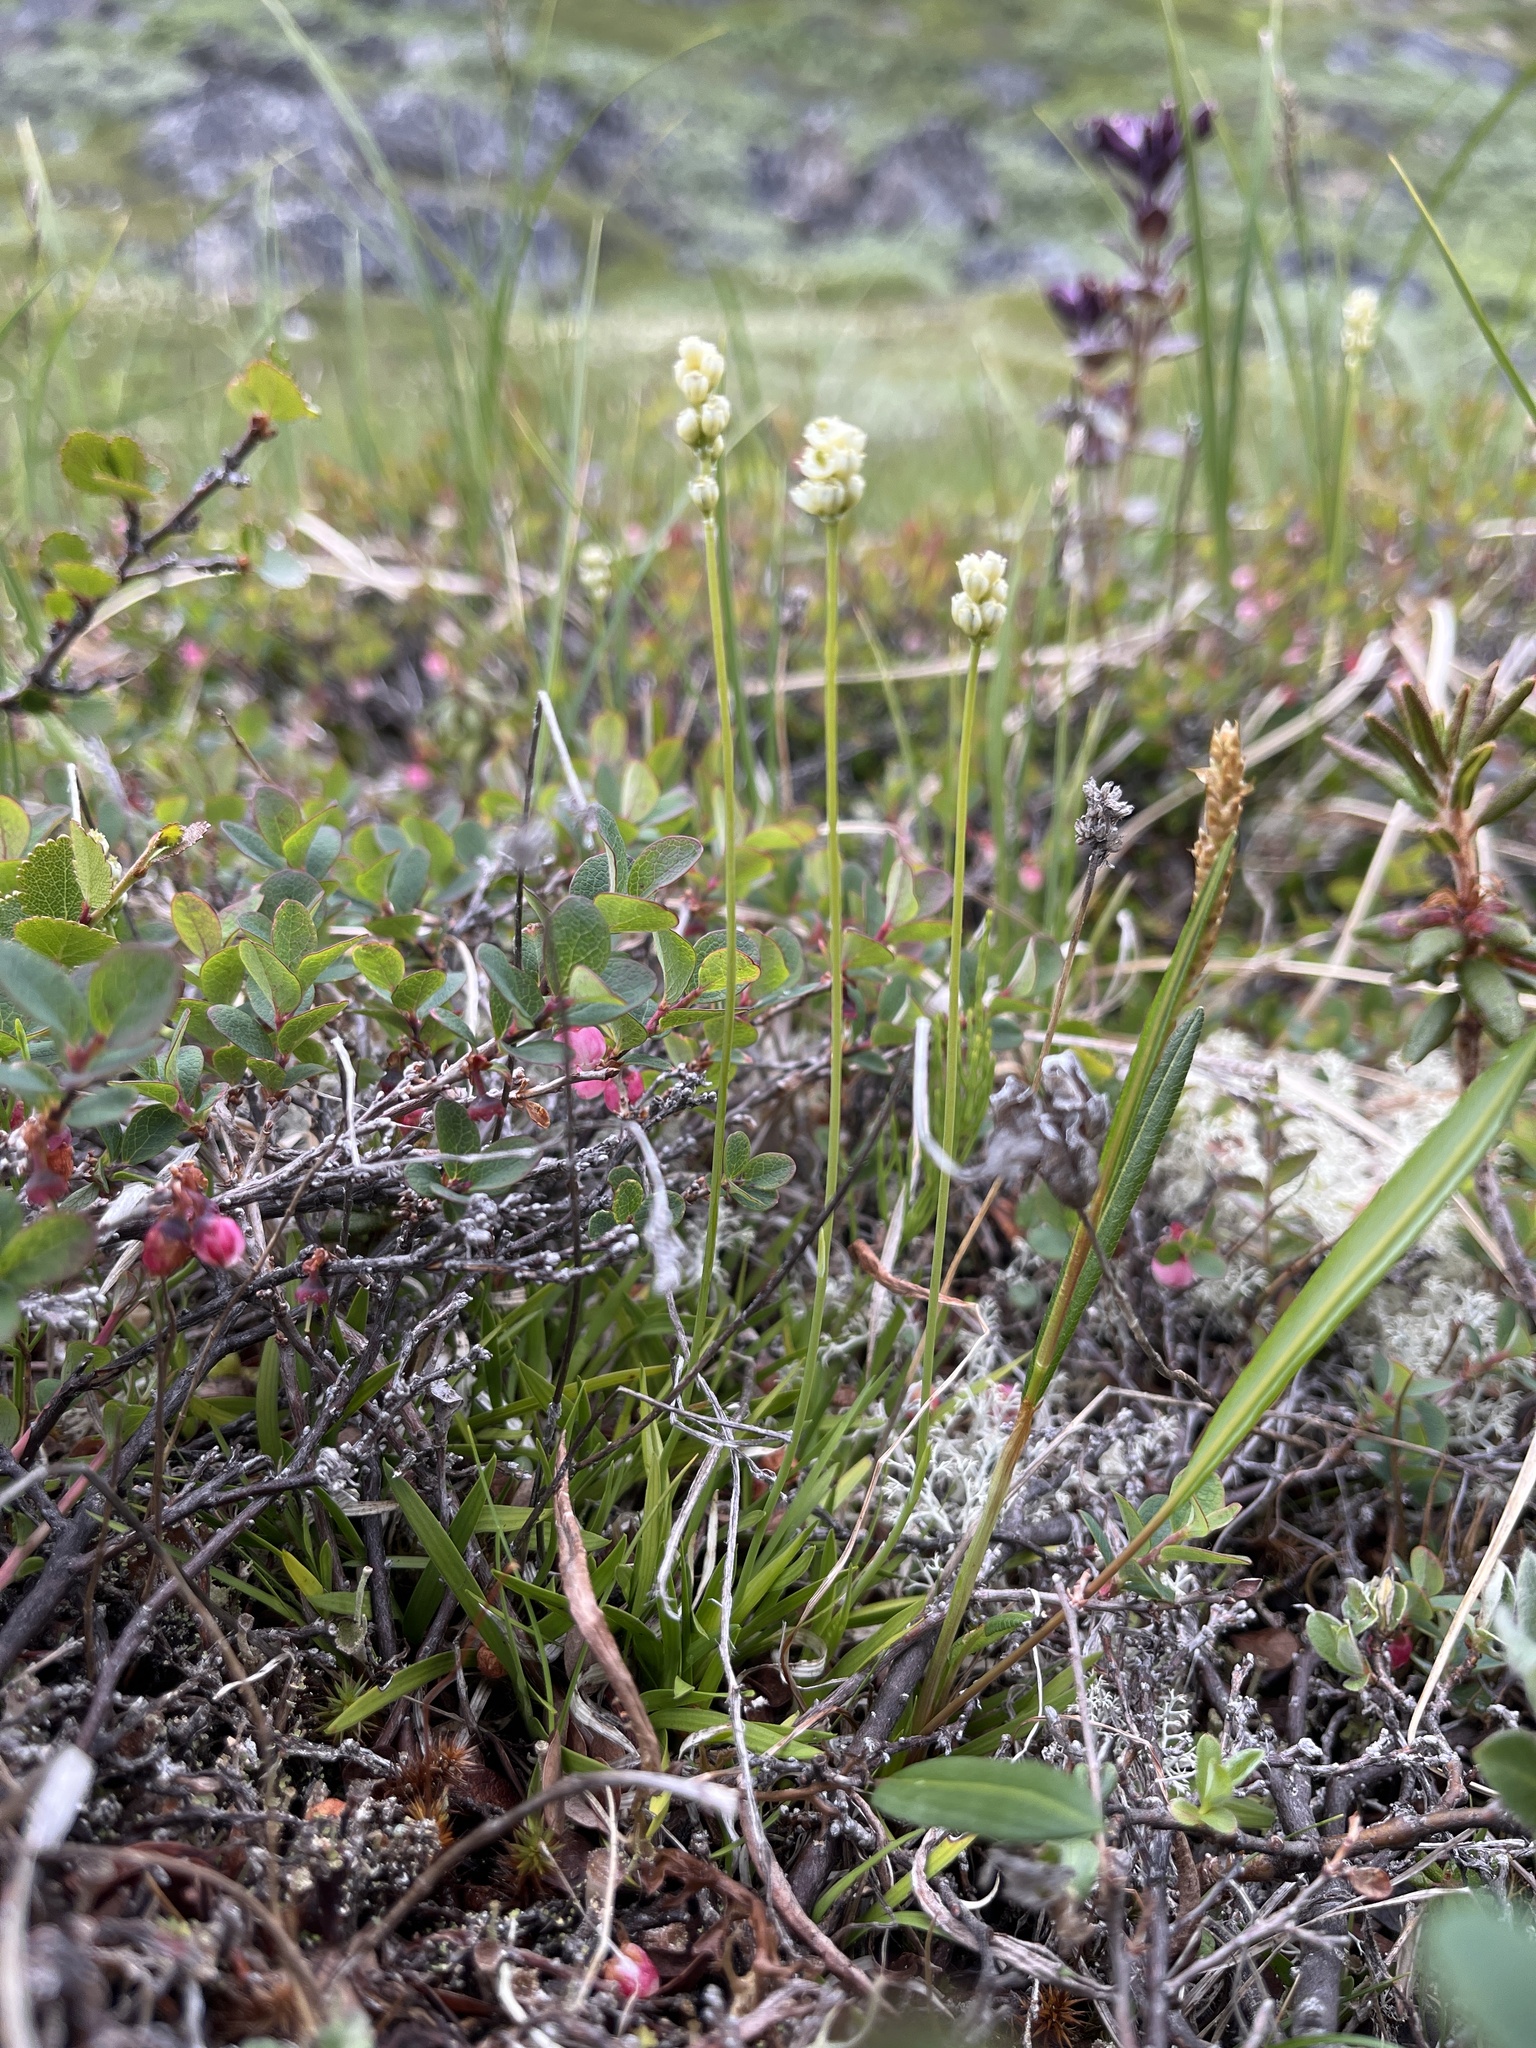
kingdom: Plantae
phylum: Tracheophyta
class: Liliopsida
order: Alismatales
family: Tofieldiaceae
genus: Tofieldia
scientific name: Tofieldia pusilla
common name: Scottish false asphodel
